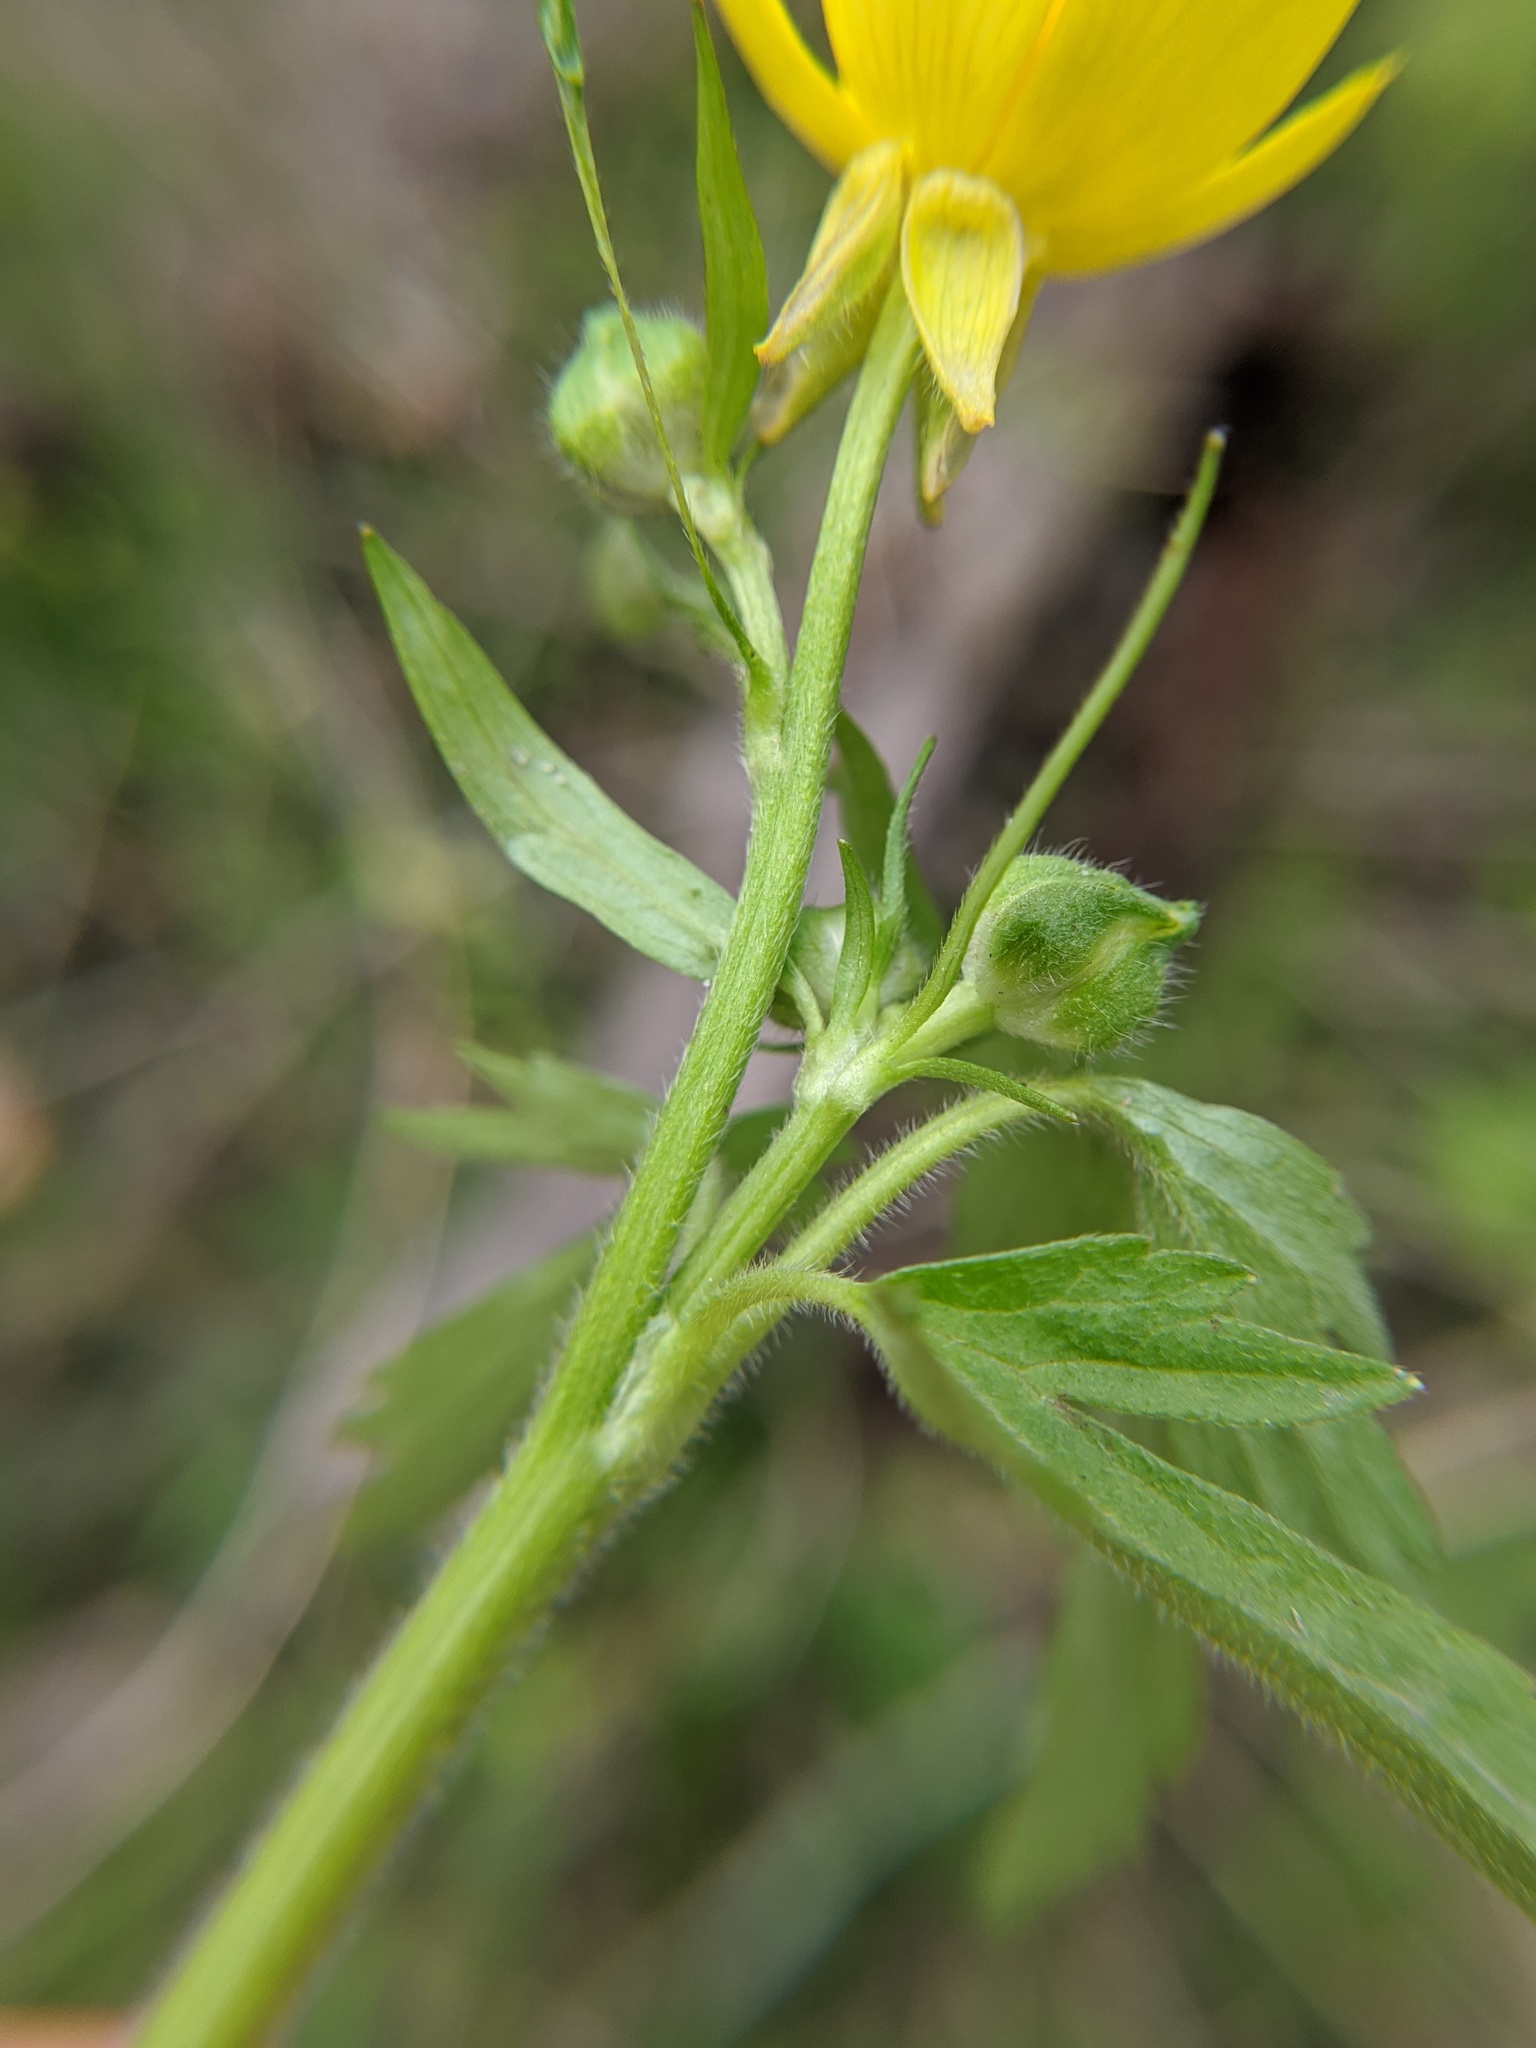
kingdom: Plantae
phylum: Tracheophyta
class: Magnoliopsida
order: Ranunculales
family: Ranunculaceae
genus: Ranunculus
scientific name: Ranunculus hispidus
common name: Bristly buttercup
